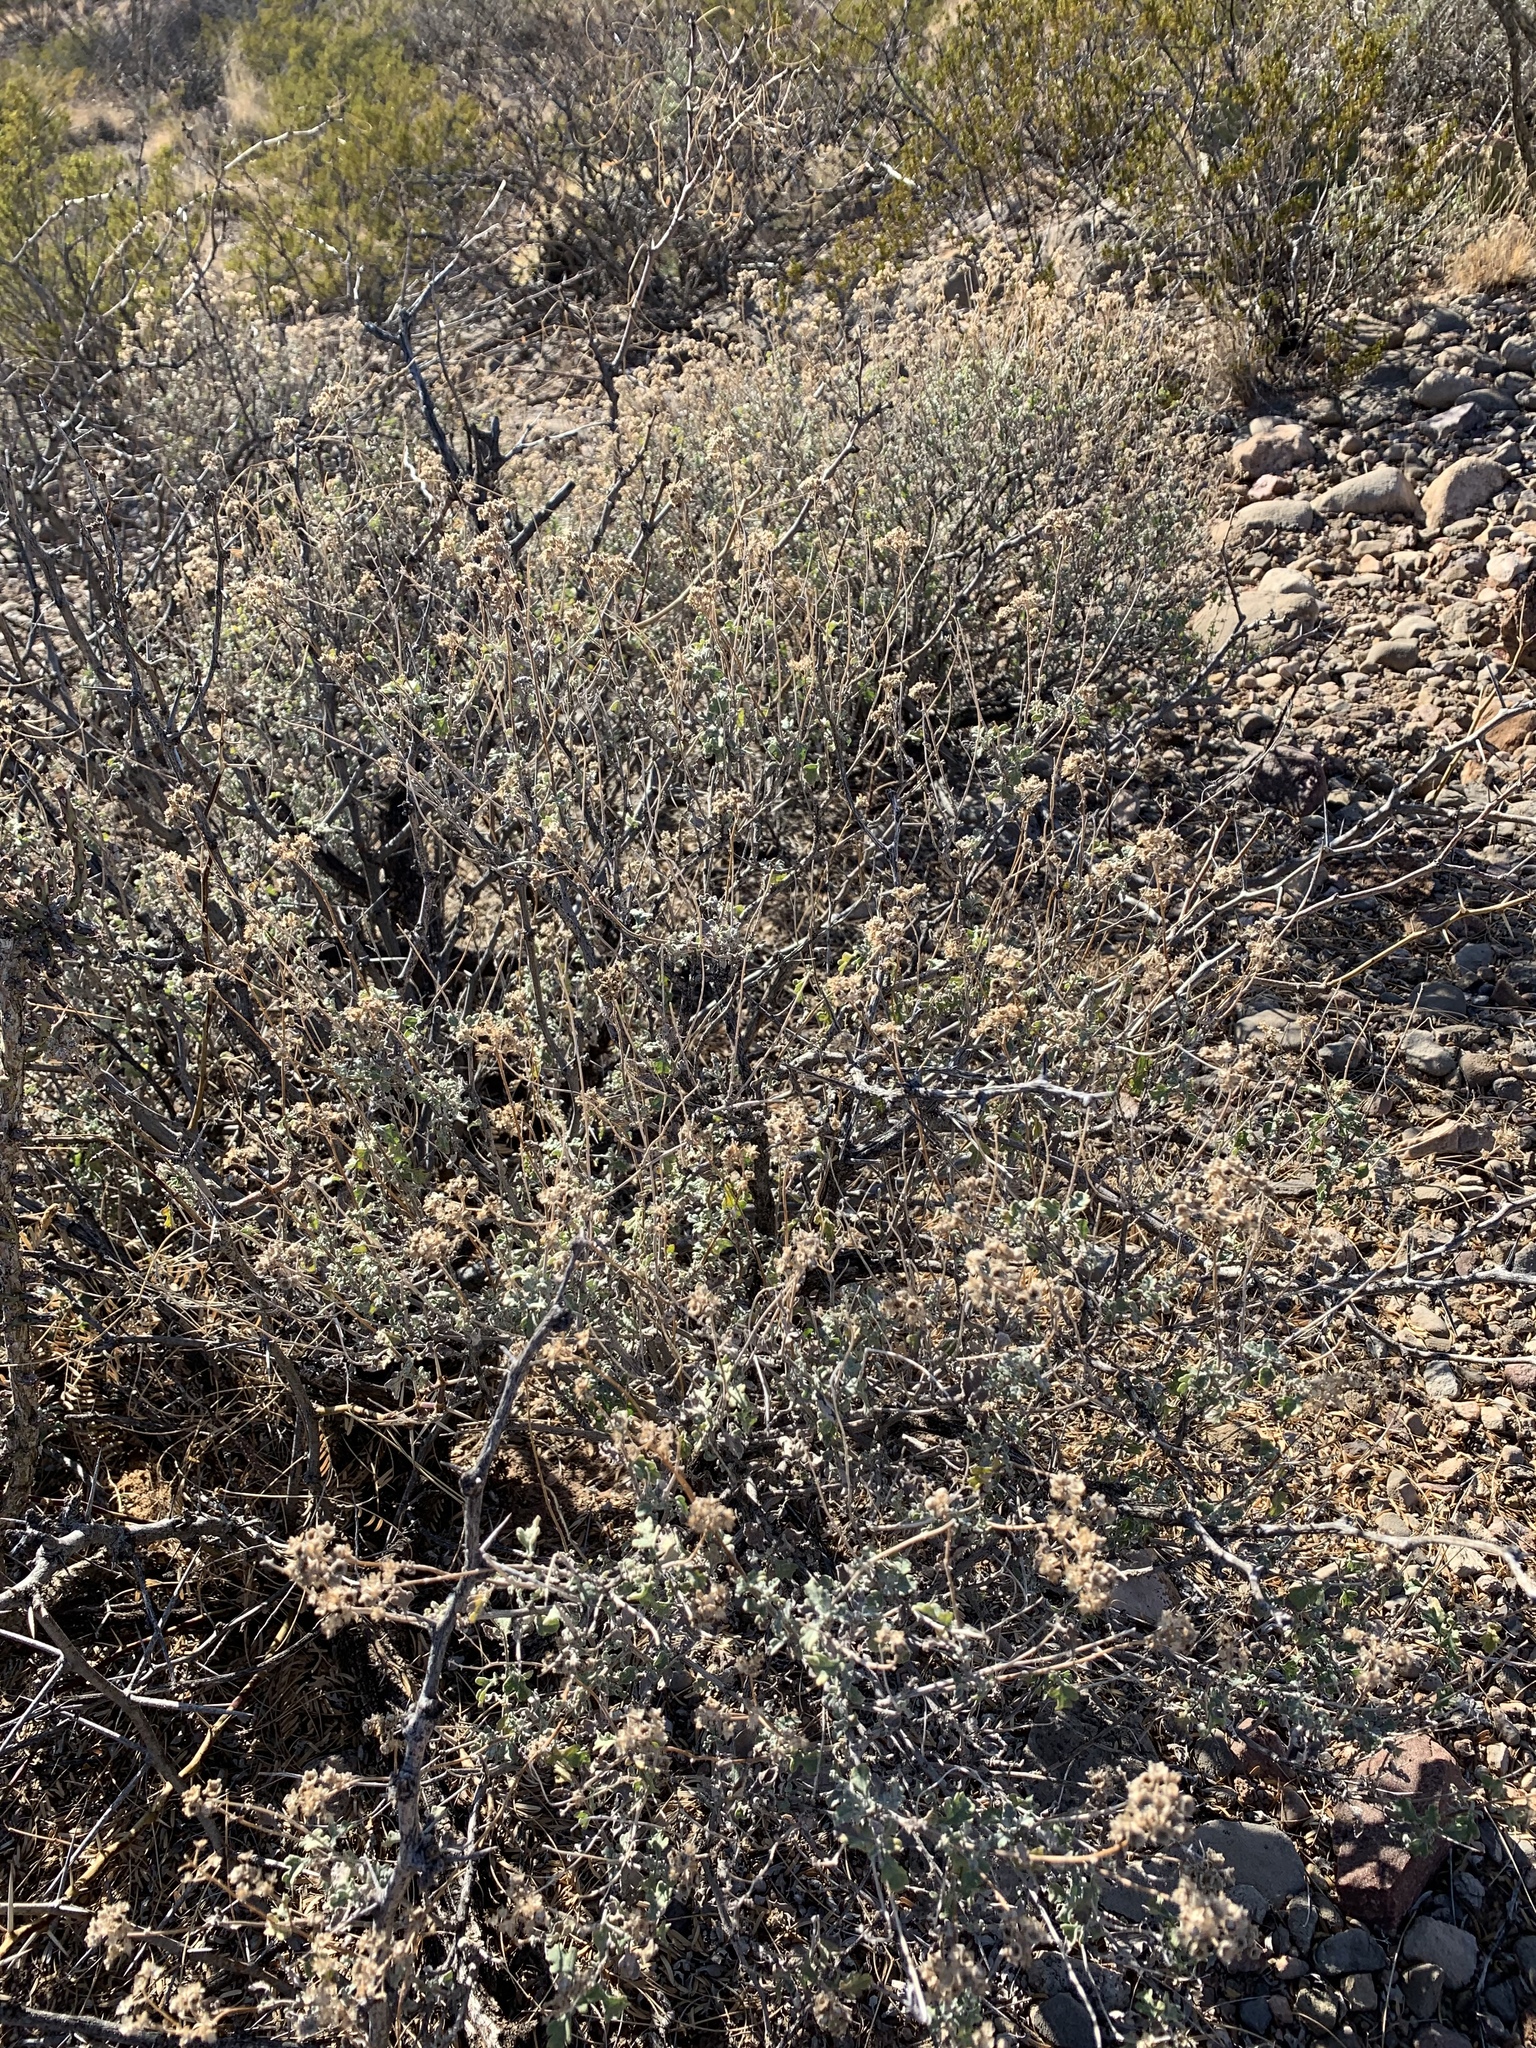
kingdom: Plantae
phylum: Tracheophyta
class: Magnoliopsida
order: Asterales
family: Asteraceae
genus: Parthenium
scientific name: Parthenium incanum
